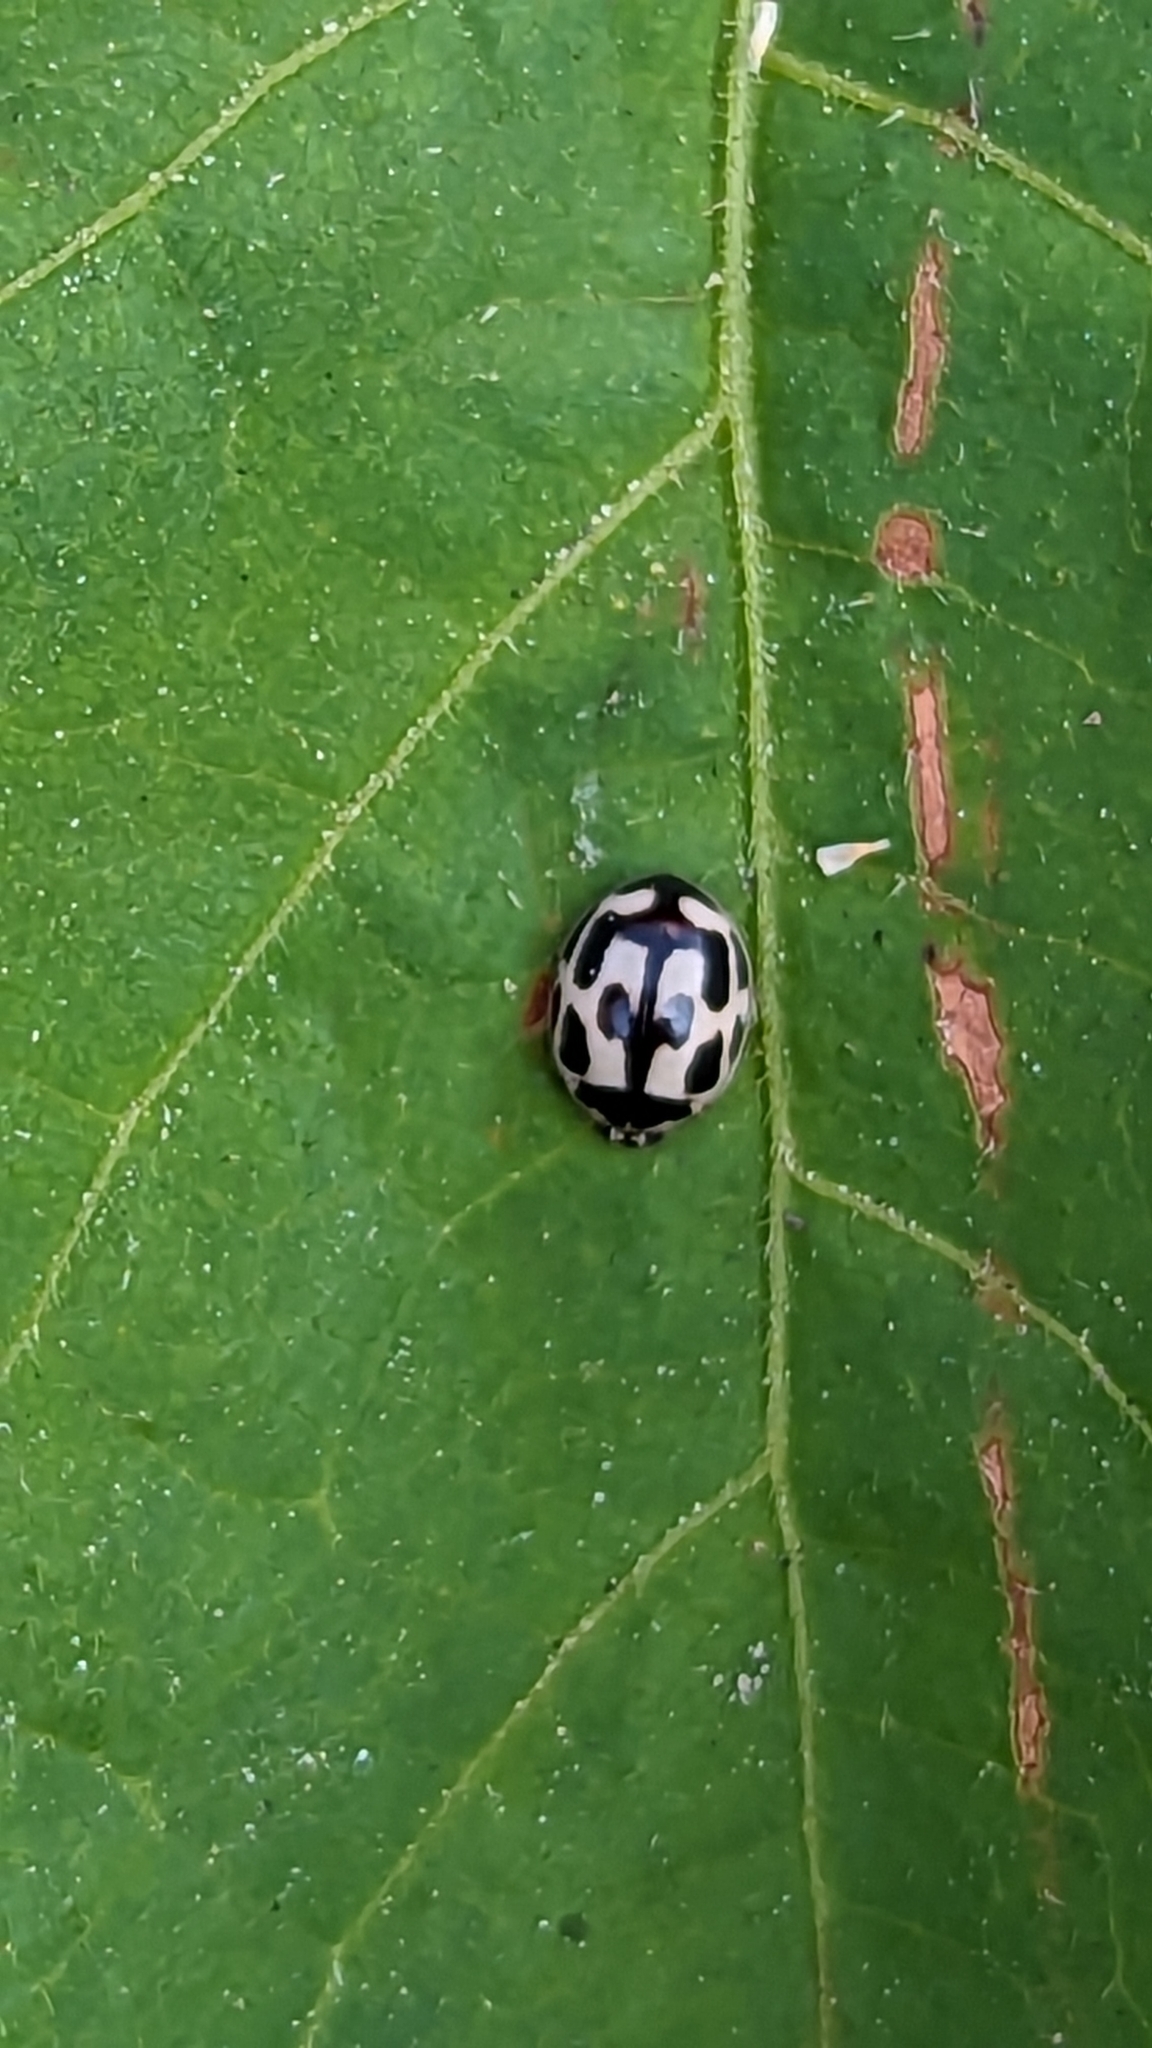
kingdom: Animalia
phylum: Arthropoda
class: Insecta
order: Coleoptera
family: Coccinellidae
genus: Propylaea
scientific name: Propylaea quatuordecimpunctata
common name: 14-spotted ladybird beetle
